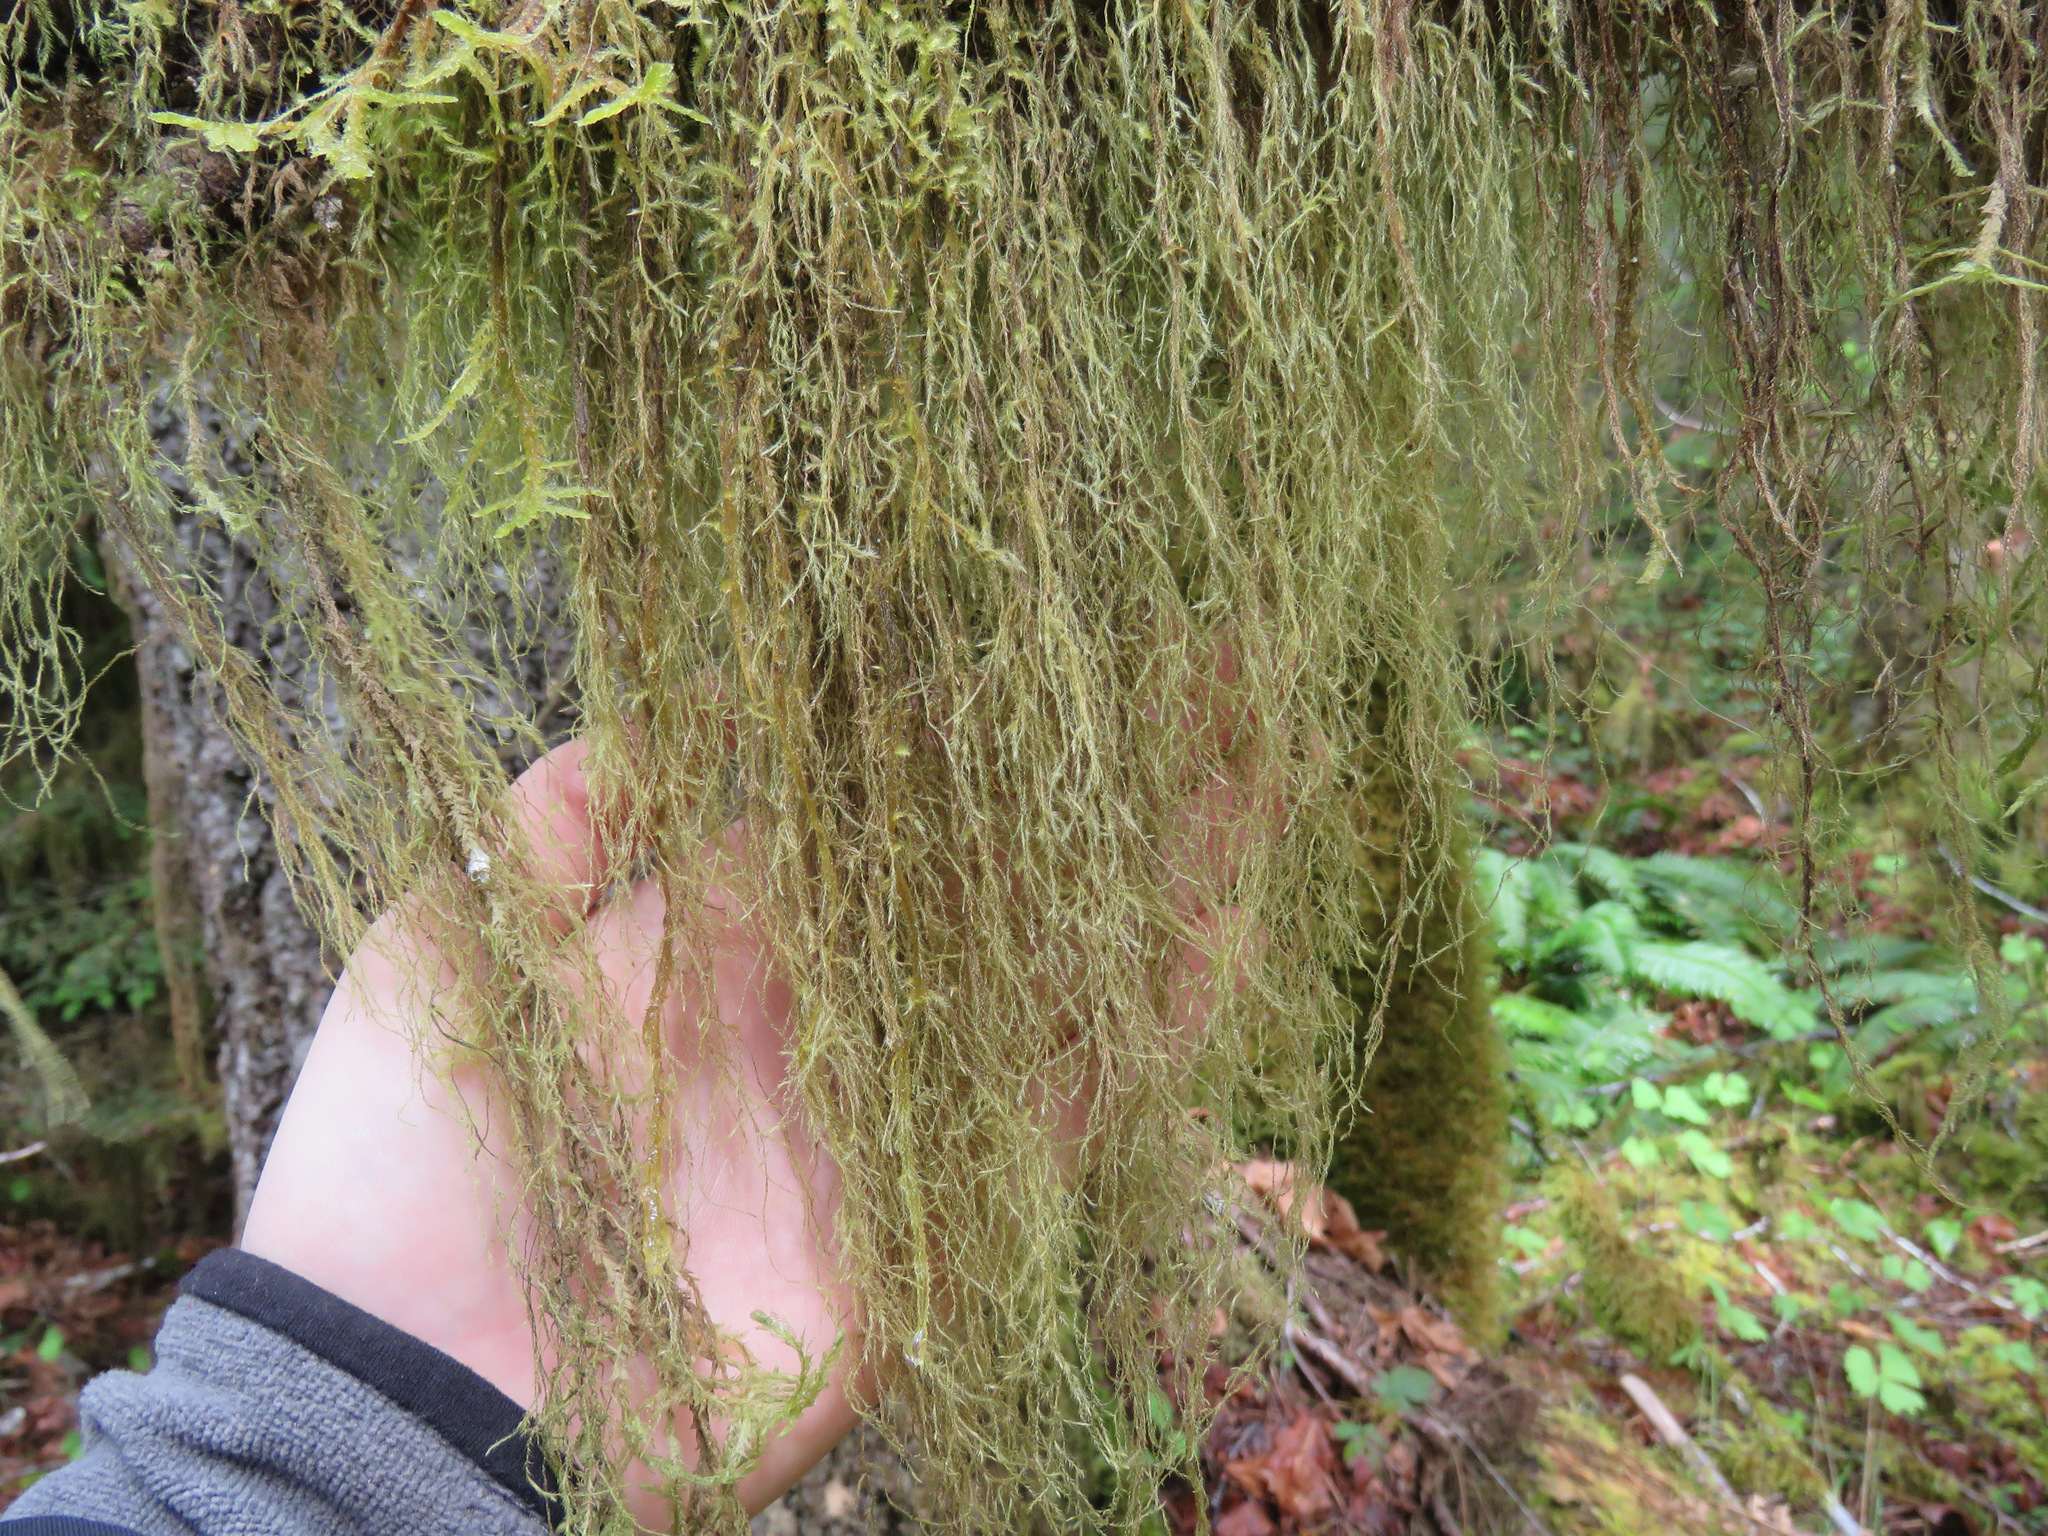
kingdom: Plantae
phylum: Bryophyta
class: Bryopsida
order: Hypnales
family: Lembophyllaceae
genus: Pseudisothecium
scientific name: Pseudisothecium stoloniferum
